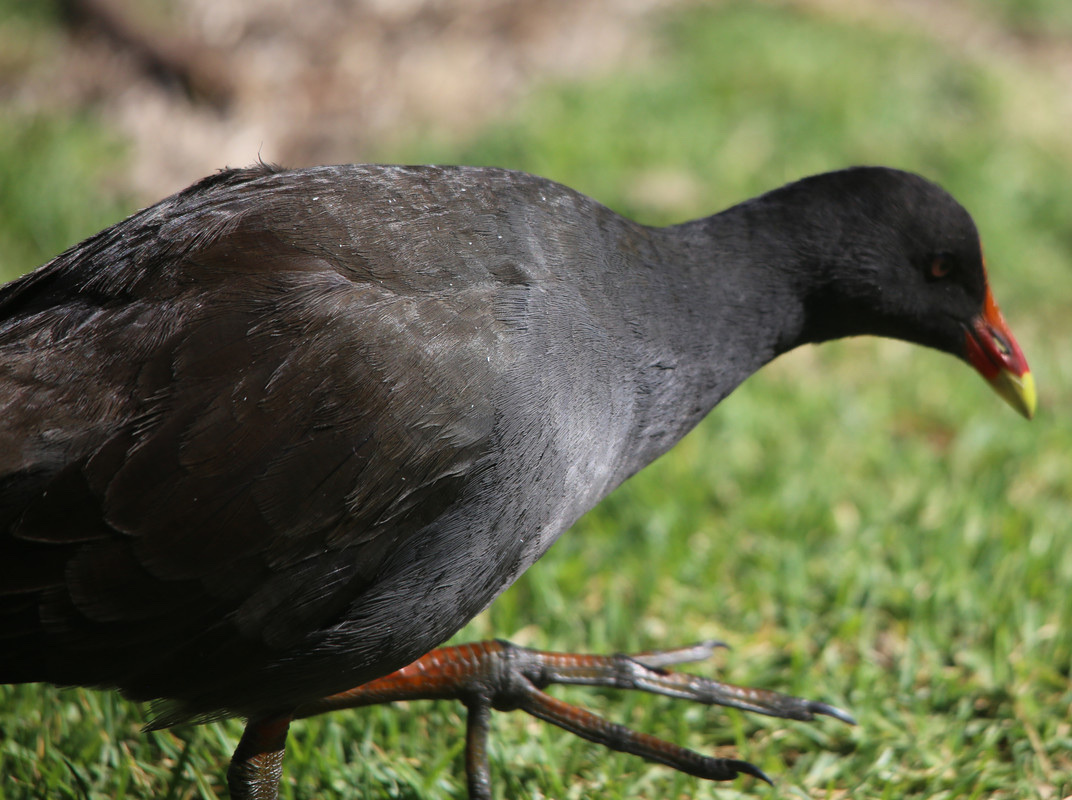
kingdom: Animalia
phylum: Chordata
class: Aves
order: Gruiformes
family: Rallidae
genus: Gallinula
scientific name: Gallinula tenebrosa
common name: Dusky moorhen
